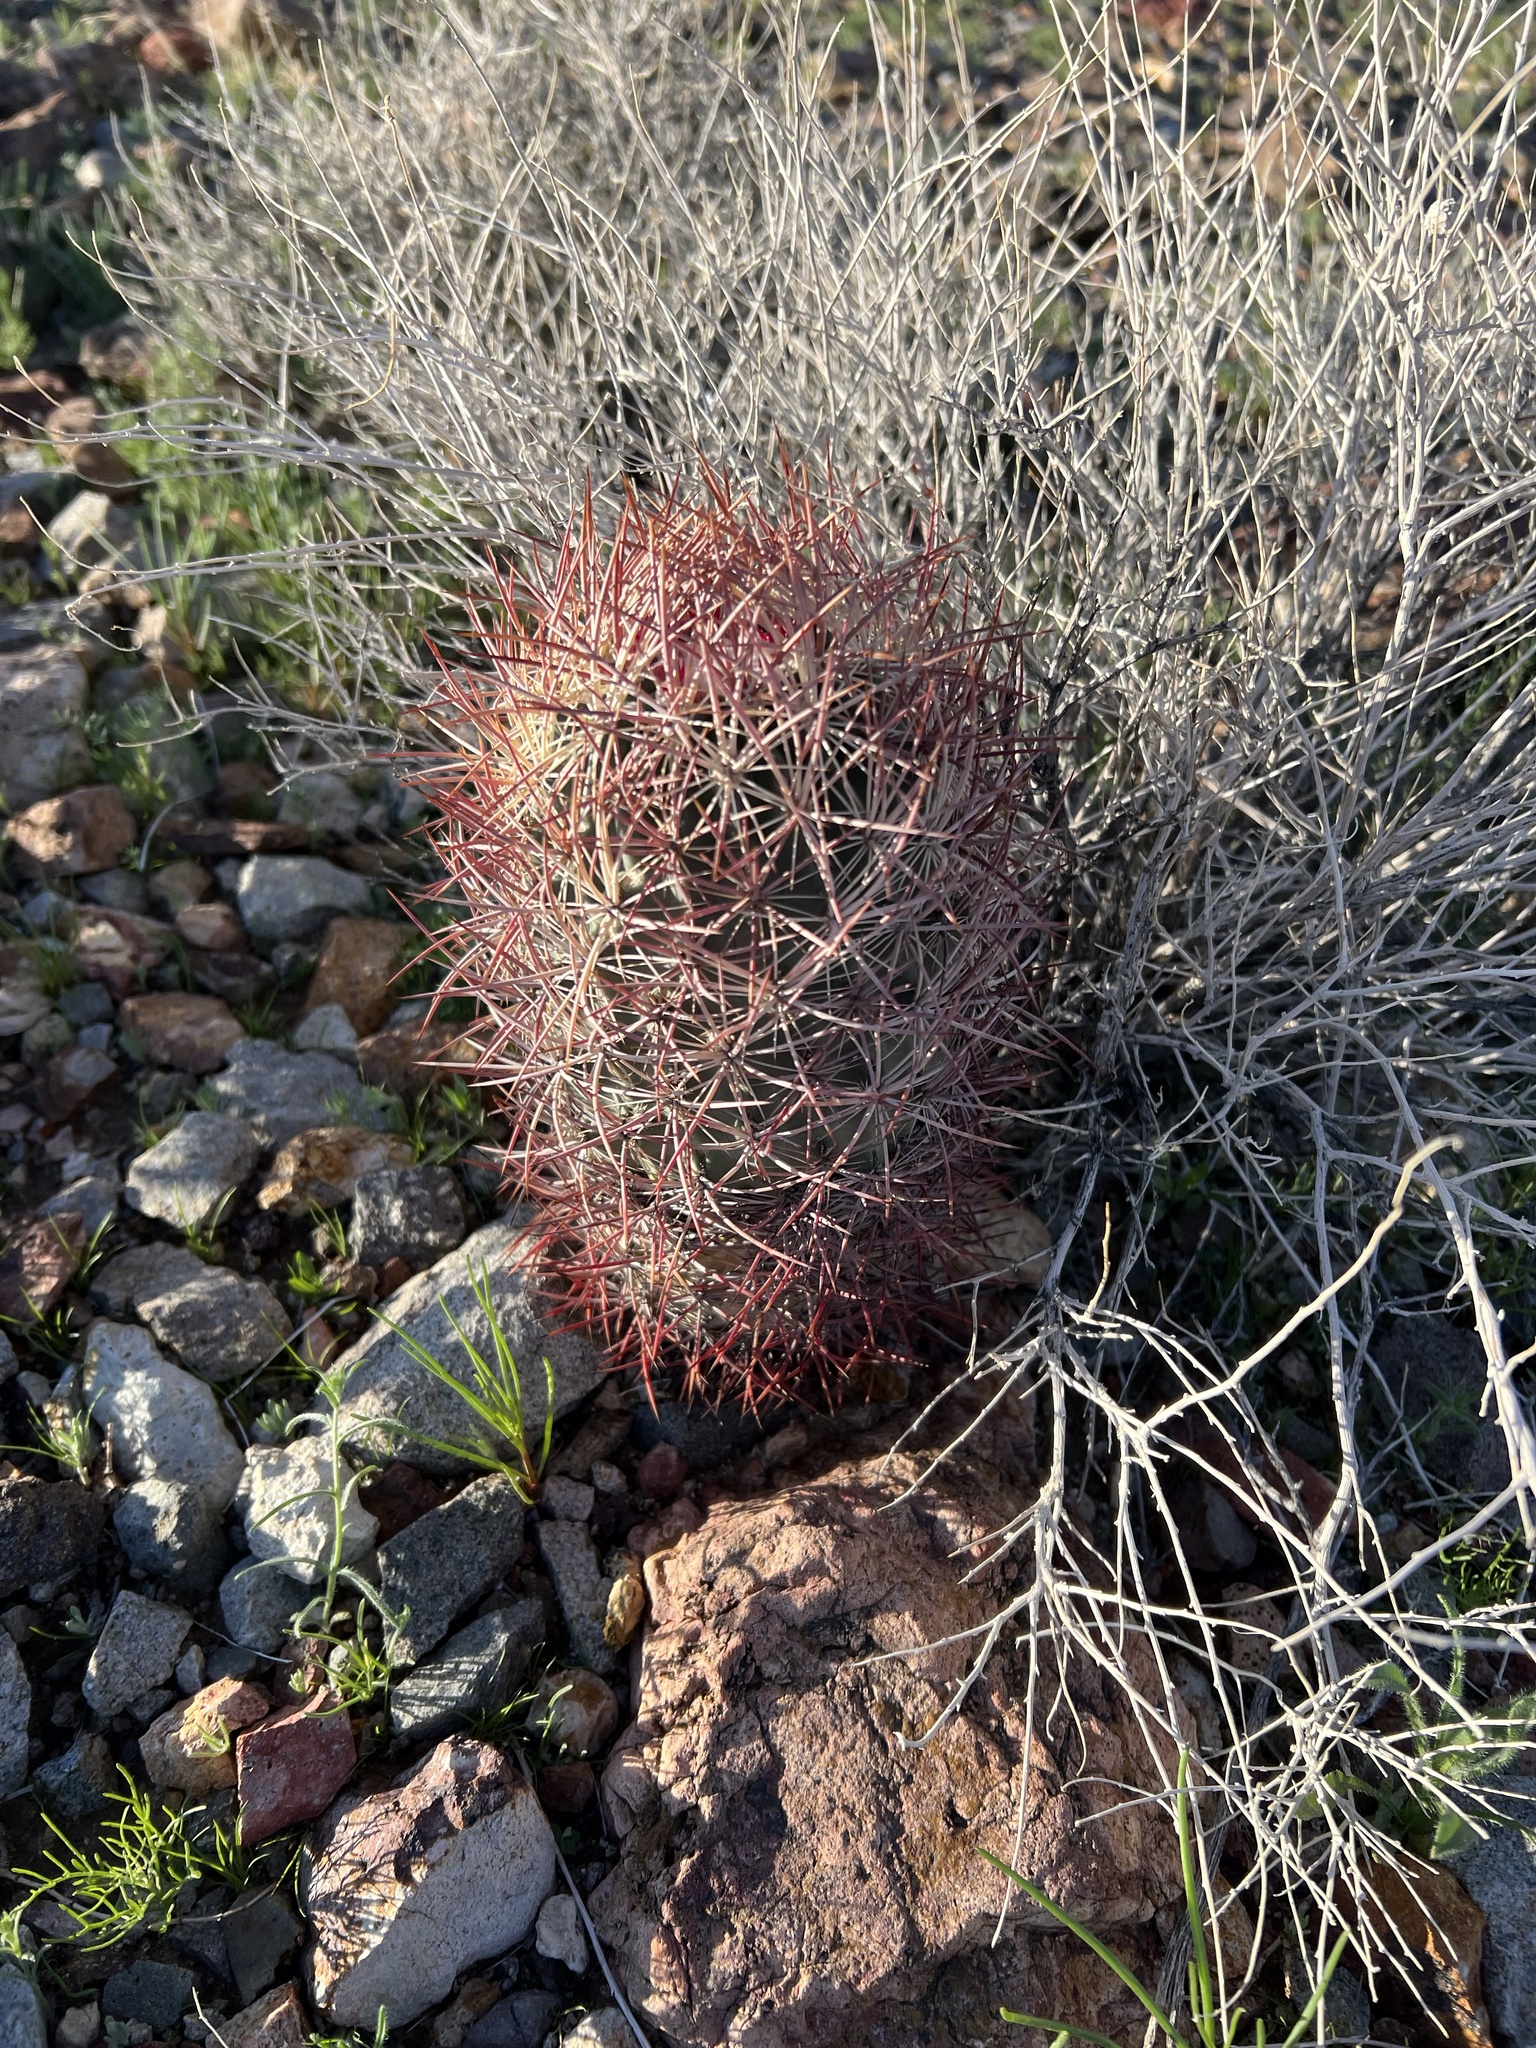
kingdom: Plantae
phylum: Tracheophyta
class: Magnoliopsida
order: Caryophyllales
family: Cactaceae
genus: Sclerocactus
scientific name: Sclerocactus johnsonii
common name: Eight-spine fishhook cactus
